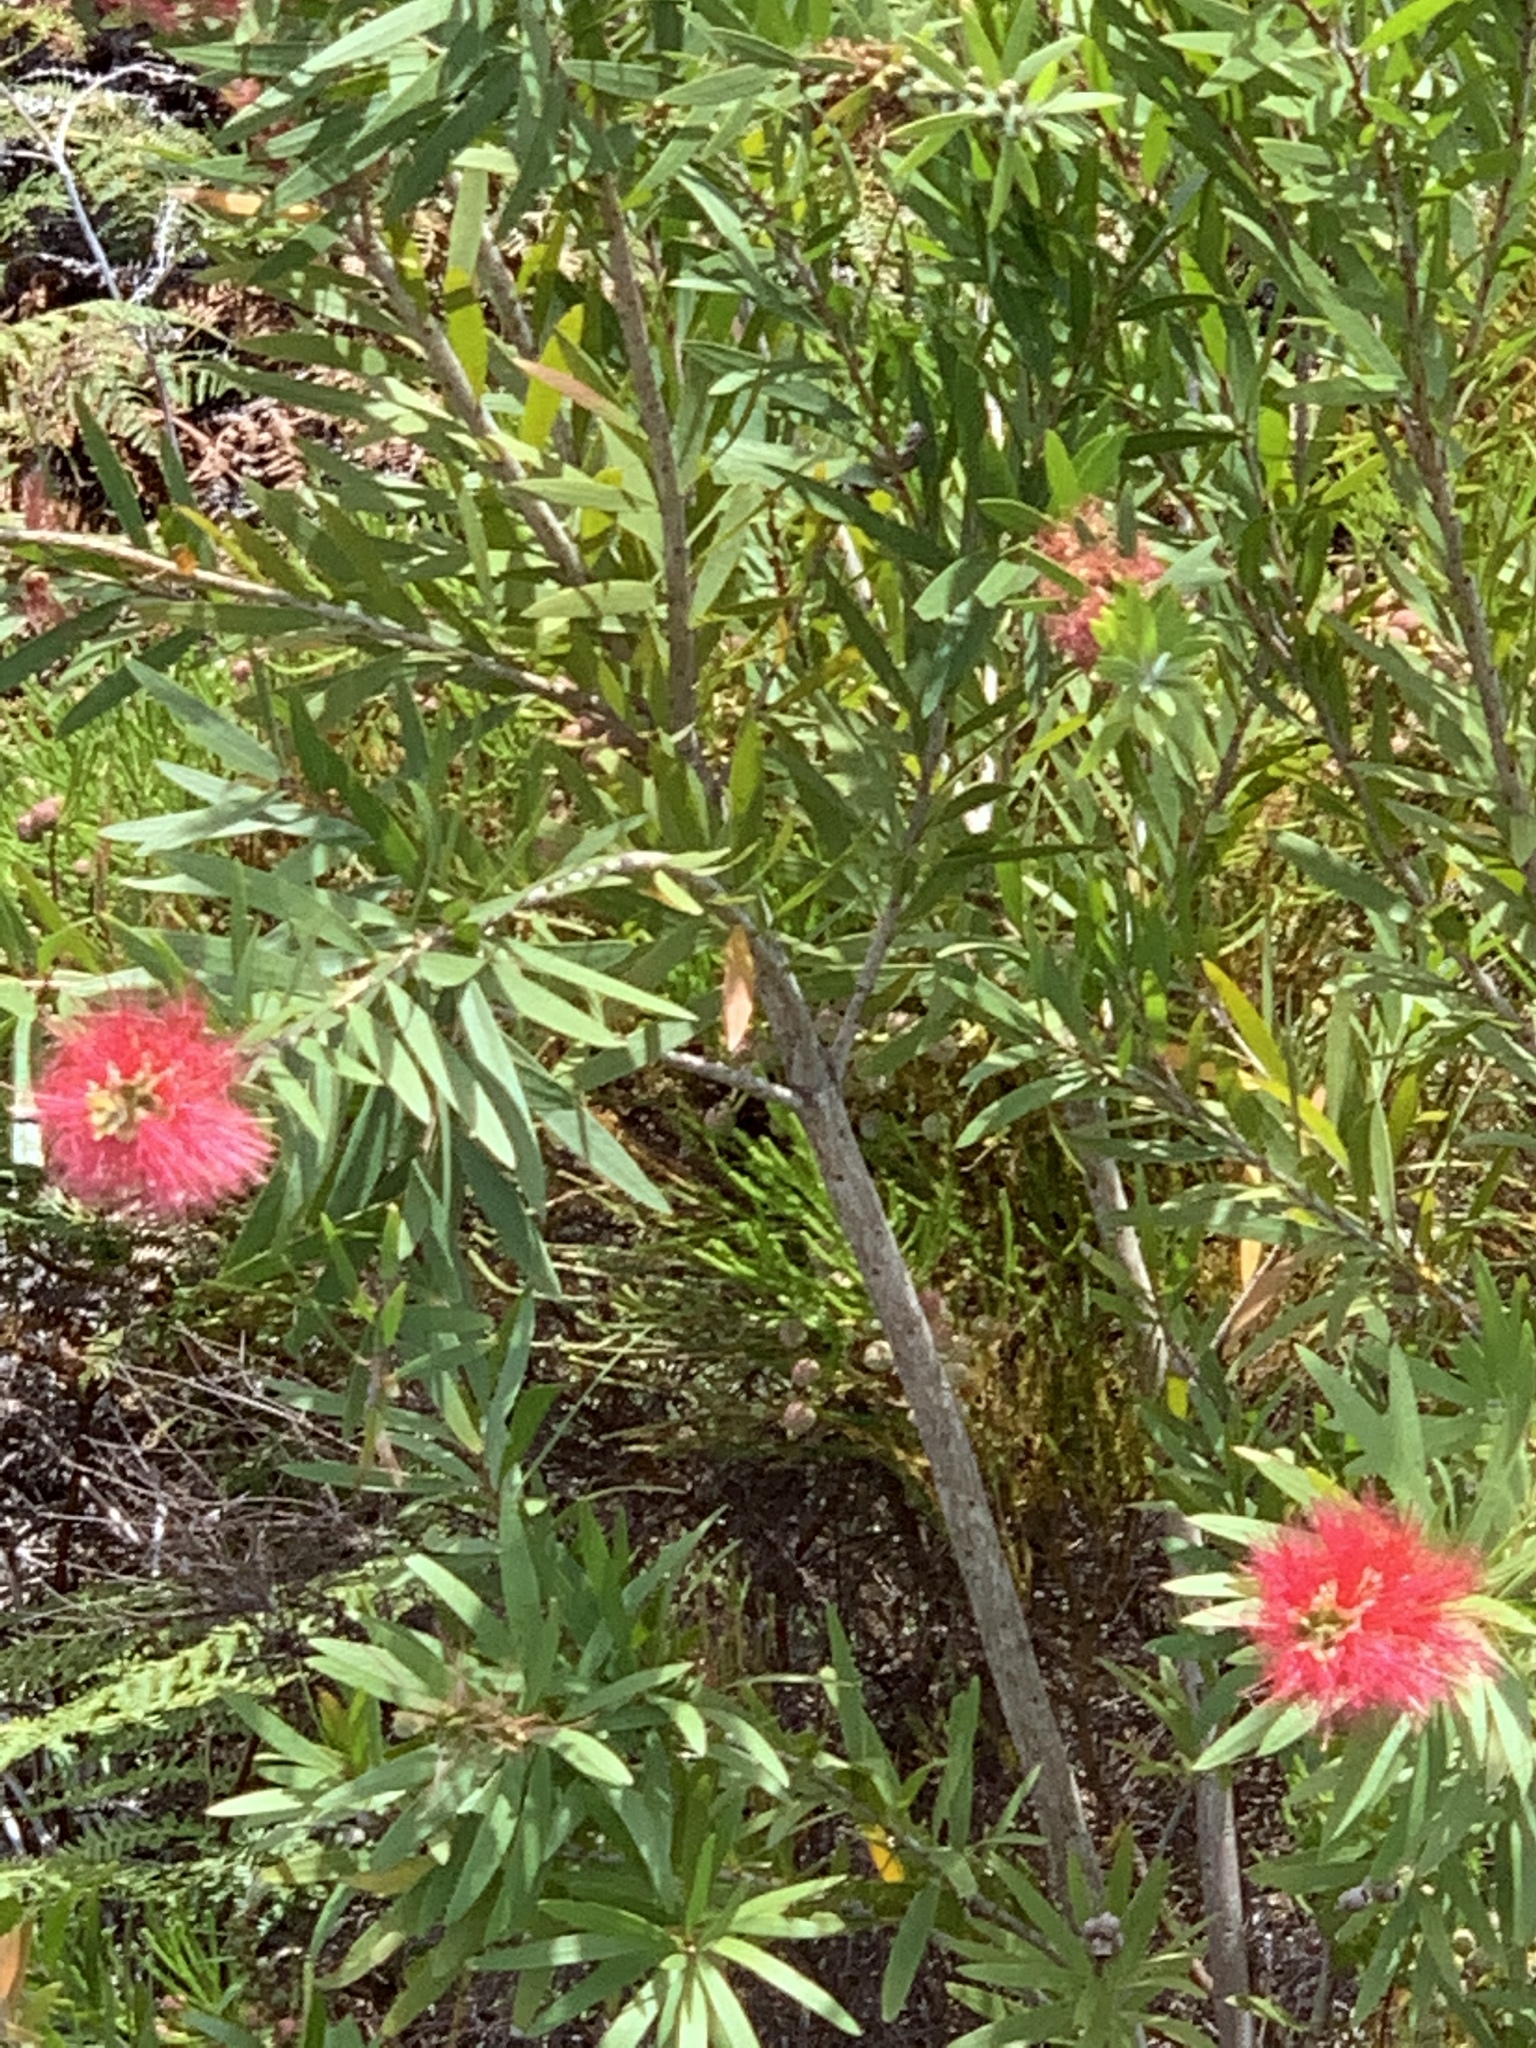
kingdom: Plantae
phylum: Tracheophyta
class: Magnoliopsida
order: Myrtales
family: Myrtaceae
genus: Callistemon
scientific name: Callistemon viminalis
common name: Drooping bottlebrush
